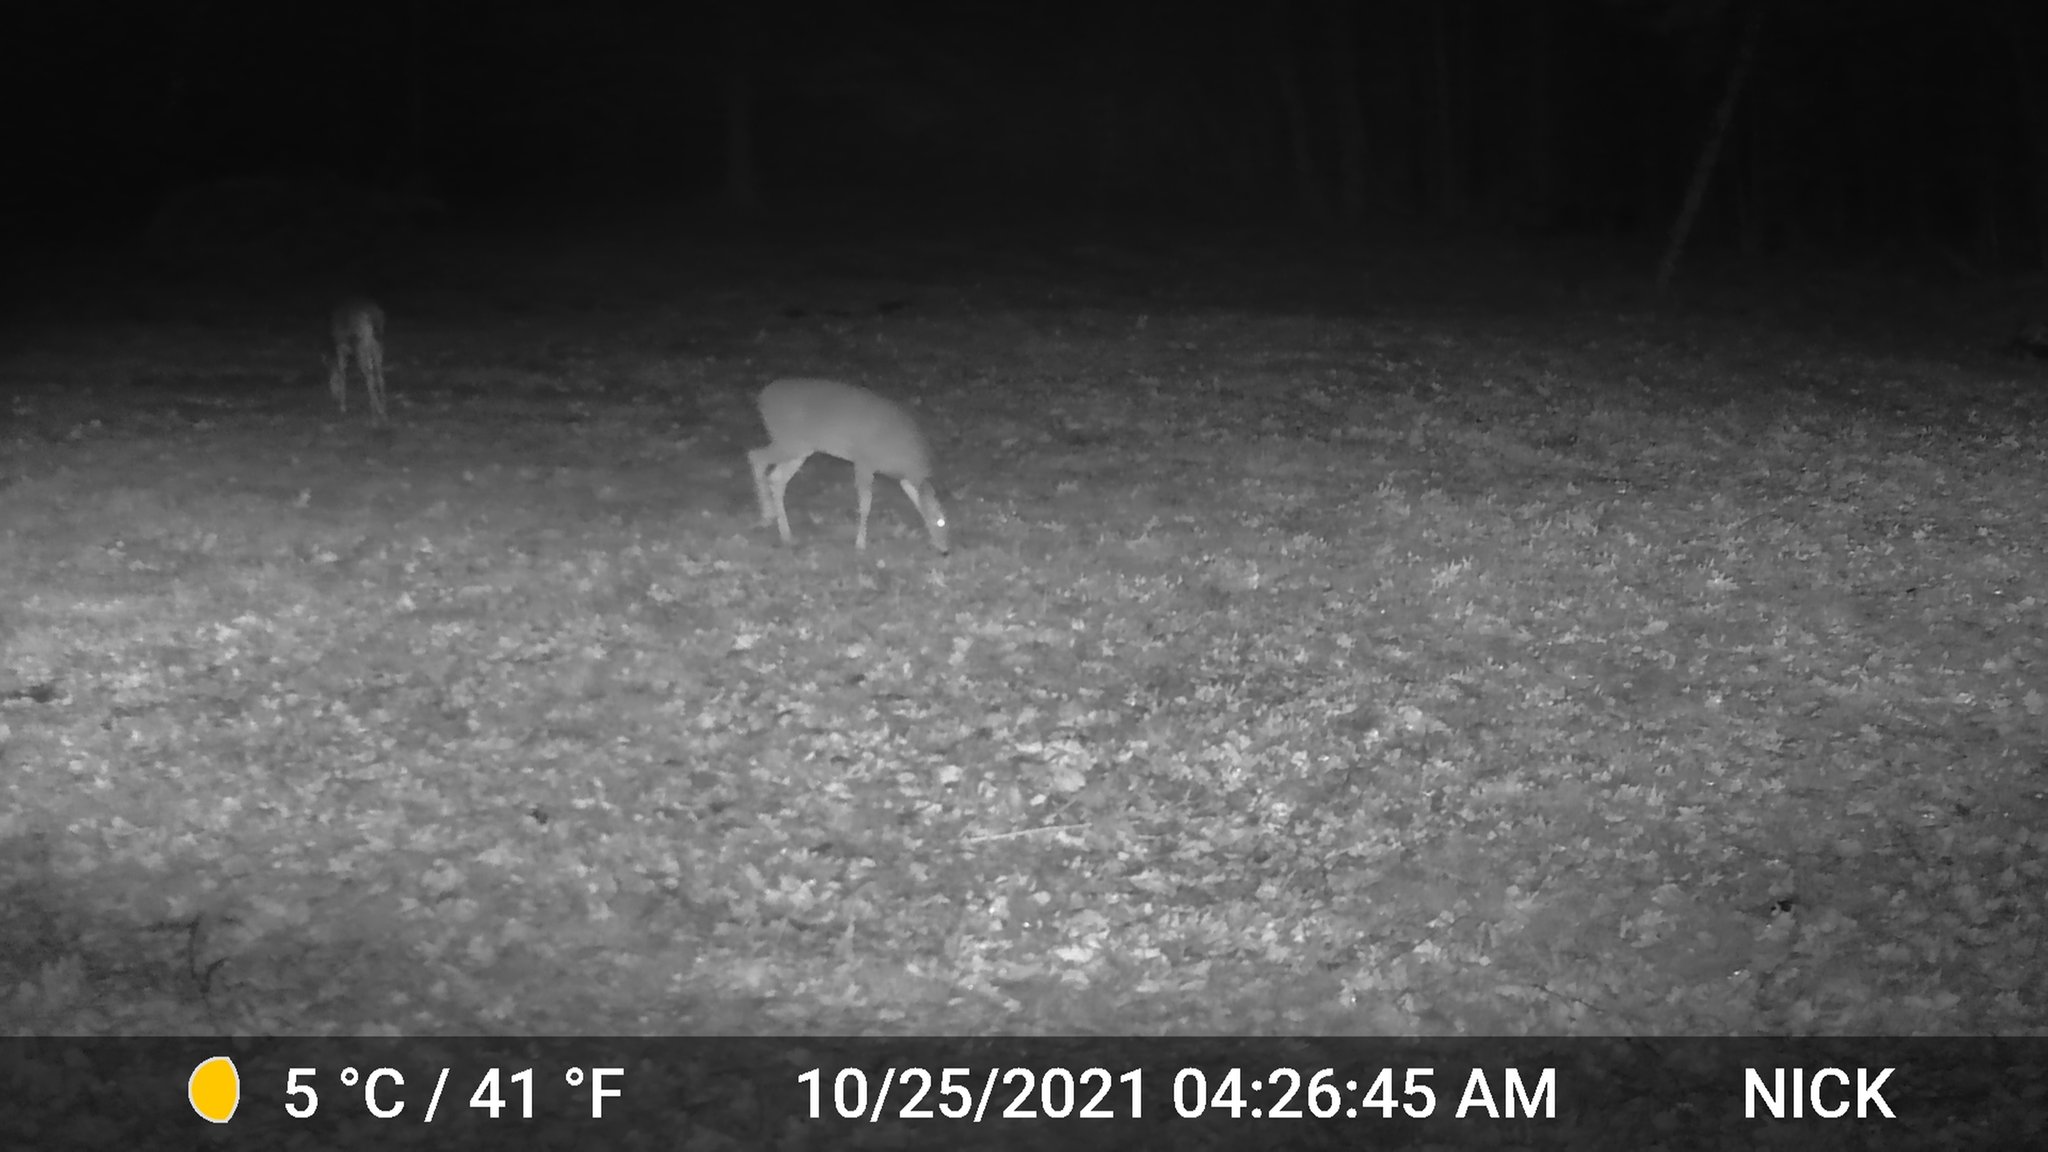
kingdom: Animalia
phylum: Chordata
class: Mammalia
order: Artiodactyla
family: Cervidae
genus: Odocoileus
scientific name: Odocoileus virginianus
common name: White-tailed deer
